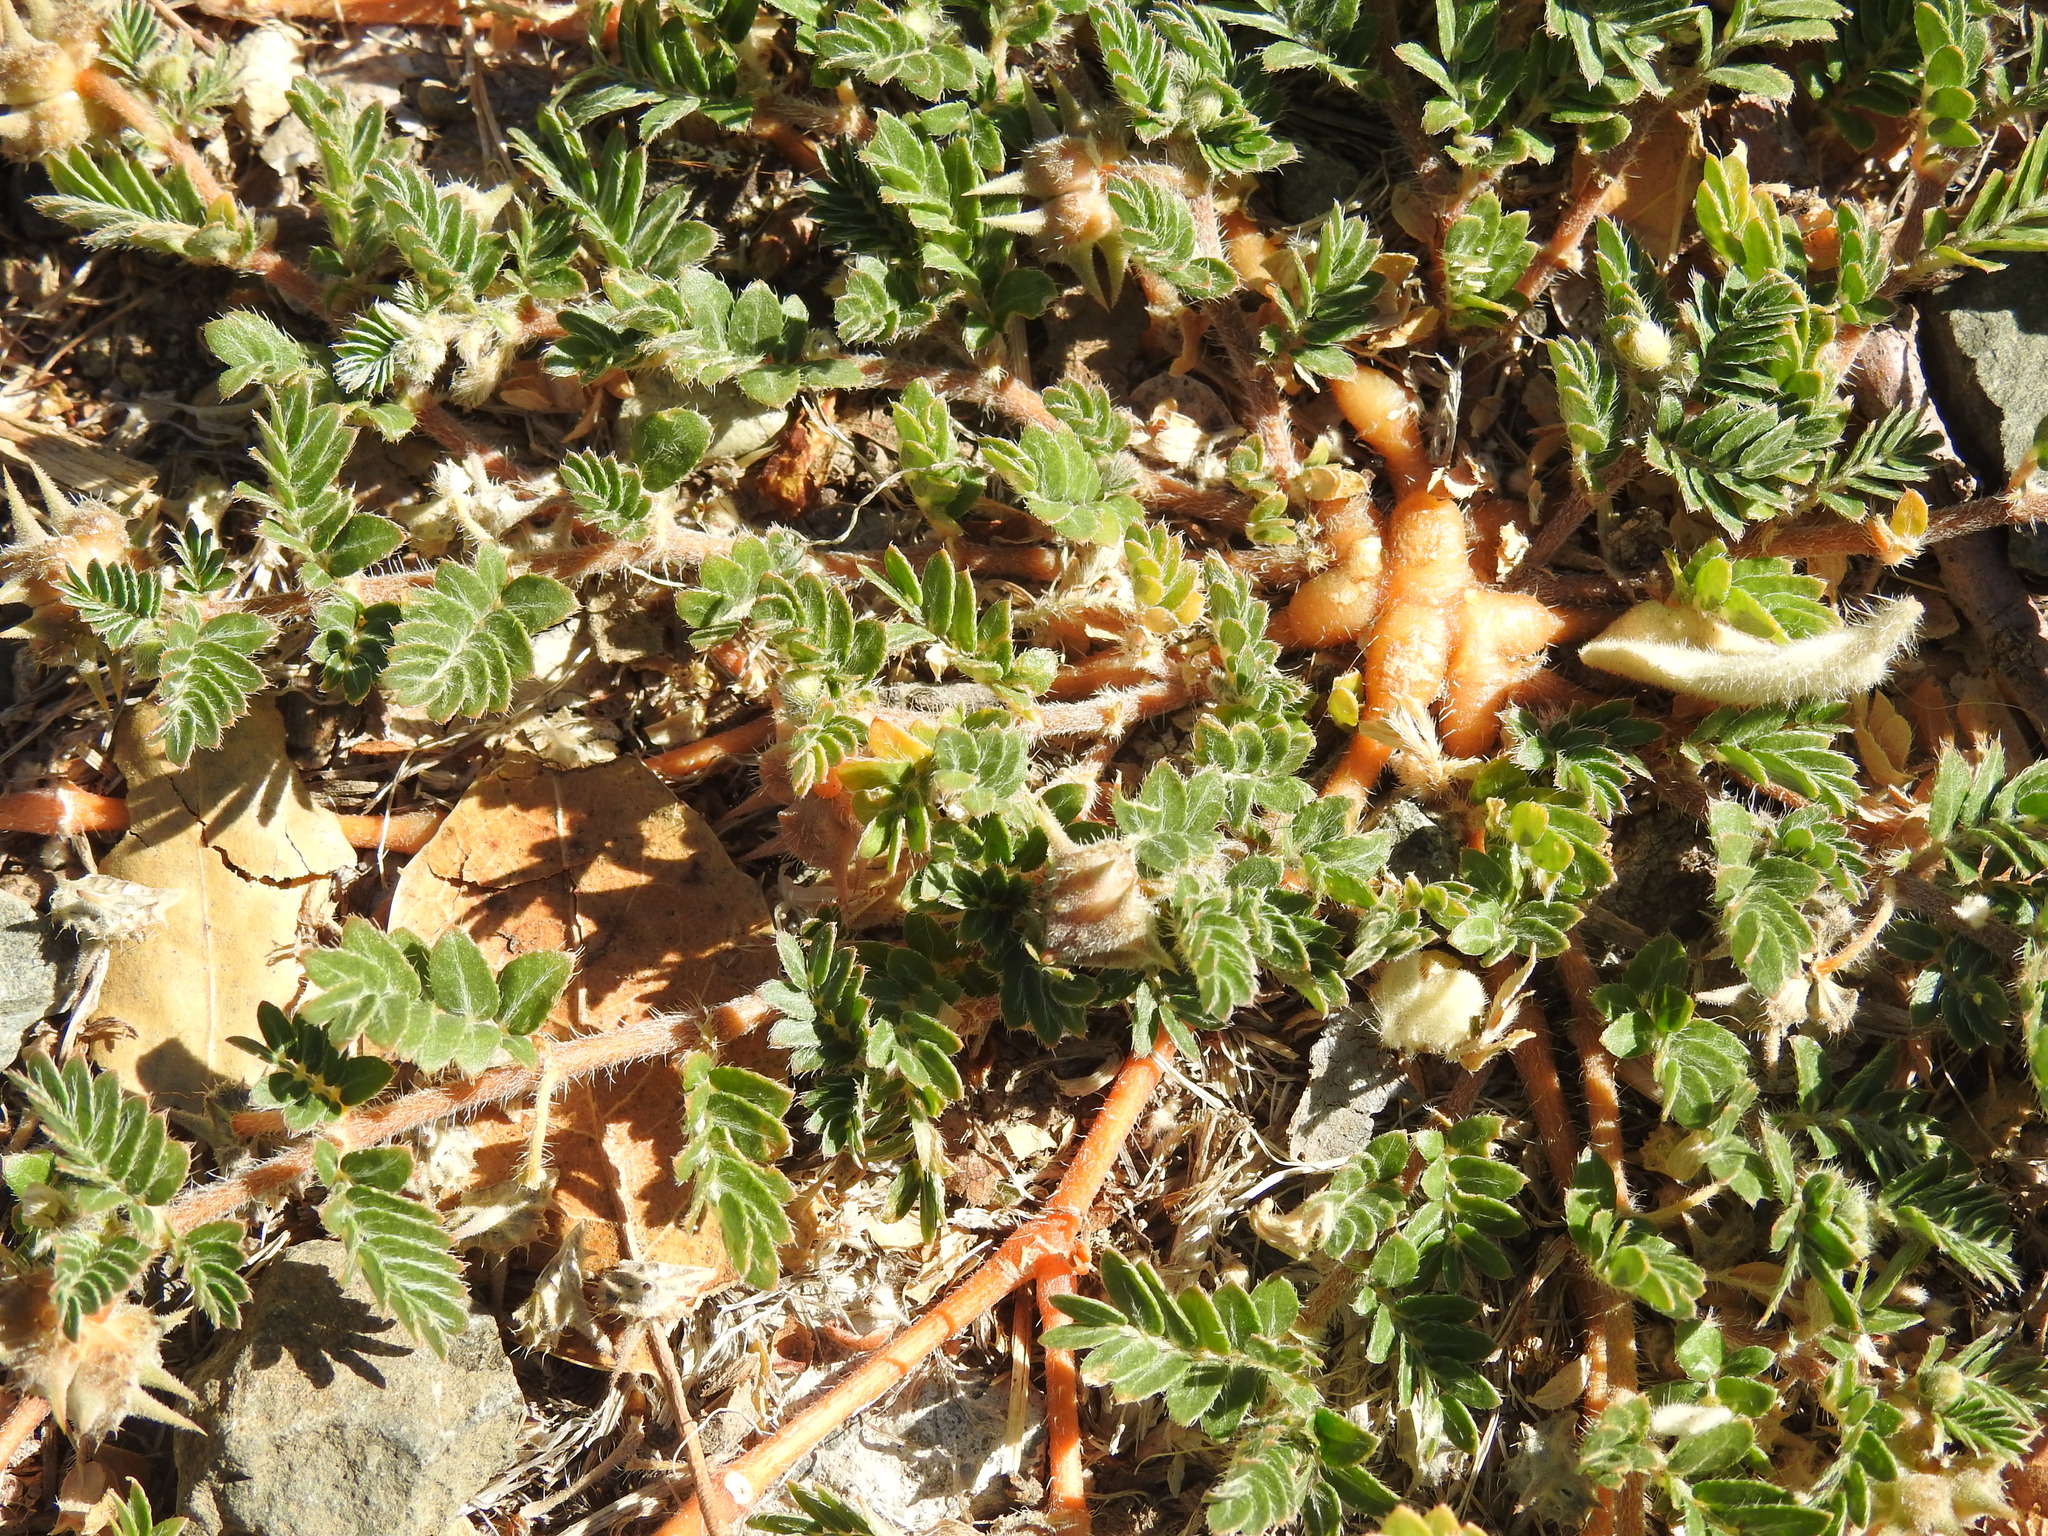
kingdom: Plantae
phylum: Tracheophyta
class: Magnoliopsida
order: Zygophyllales
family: Zygophyllaceae
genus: Tribulus
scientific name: Tribulus terrestris
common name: Puncturevine
